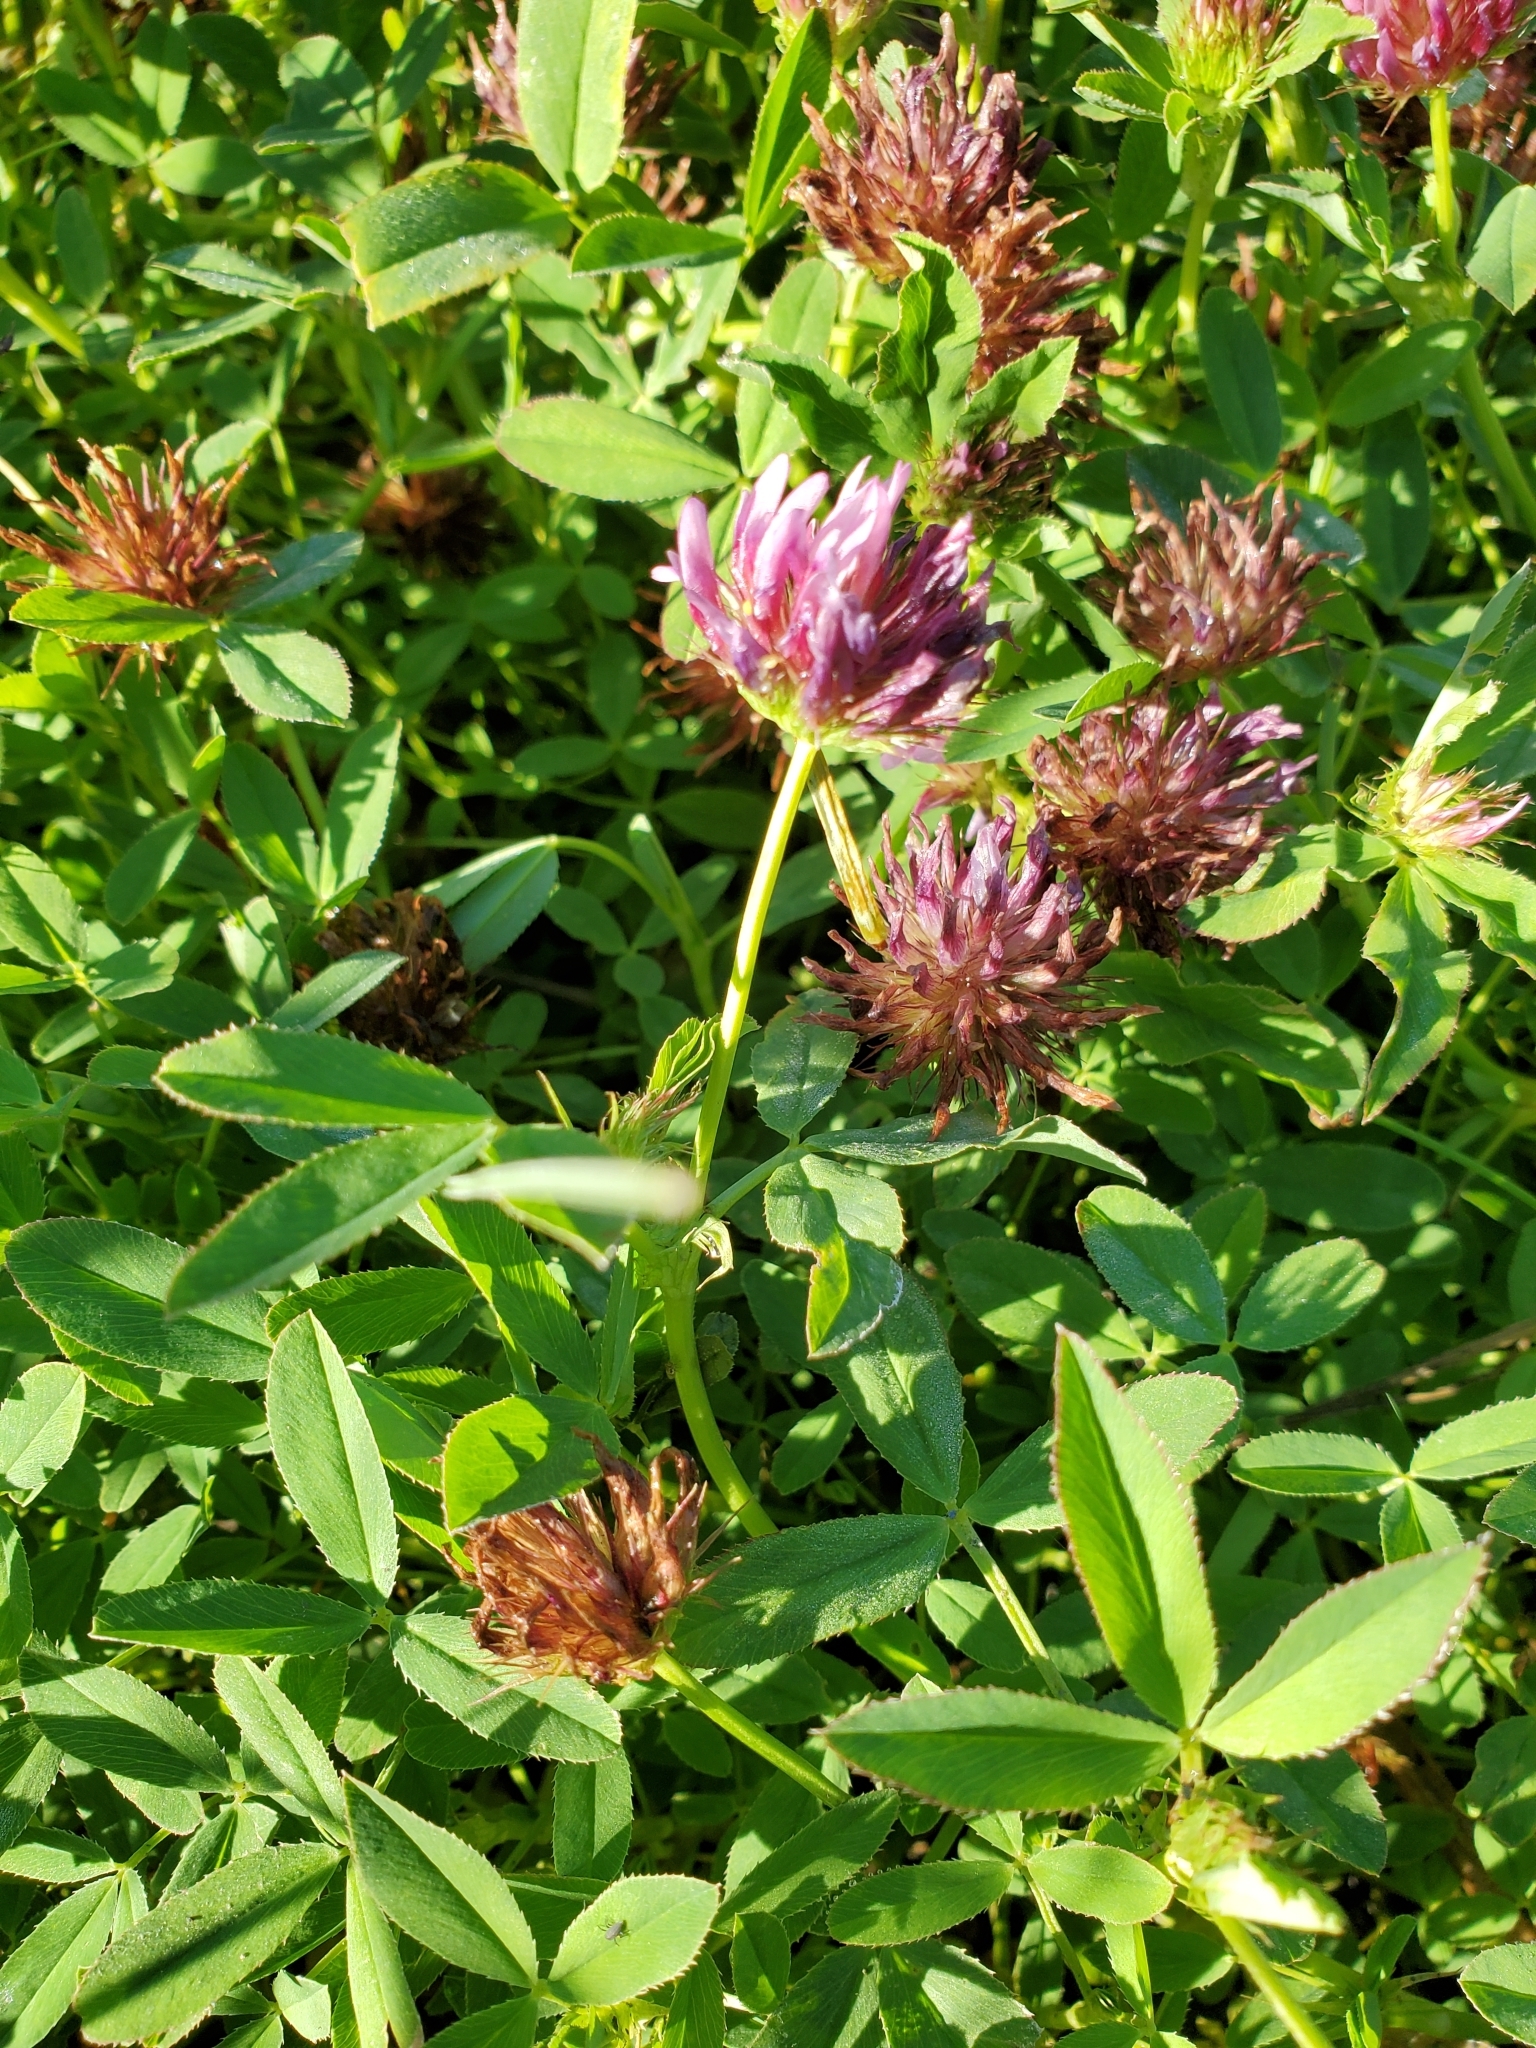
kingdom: Plantae
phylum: Tracheophyta
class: Magnoliopsida
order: Fabales
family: Fabaceae
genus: Trifolium
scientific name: Trifolium wormskioldii
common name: Springbank clover
